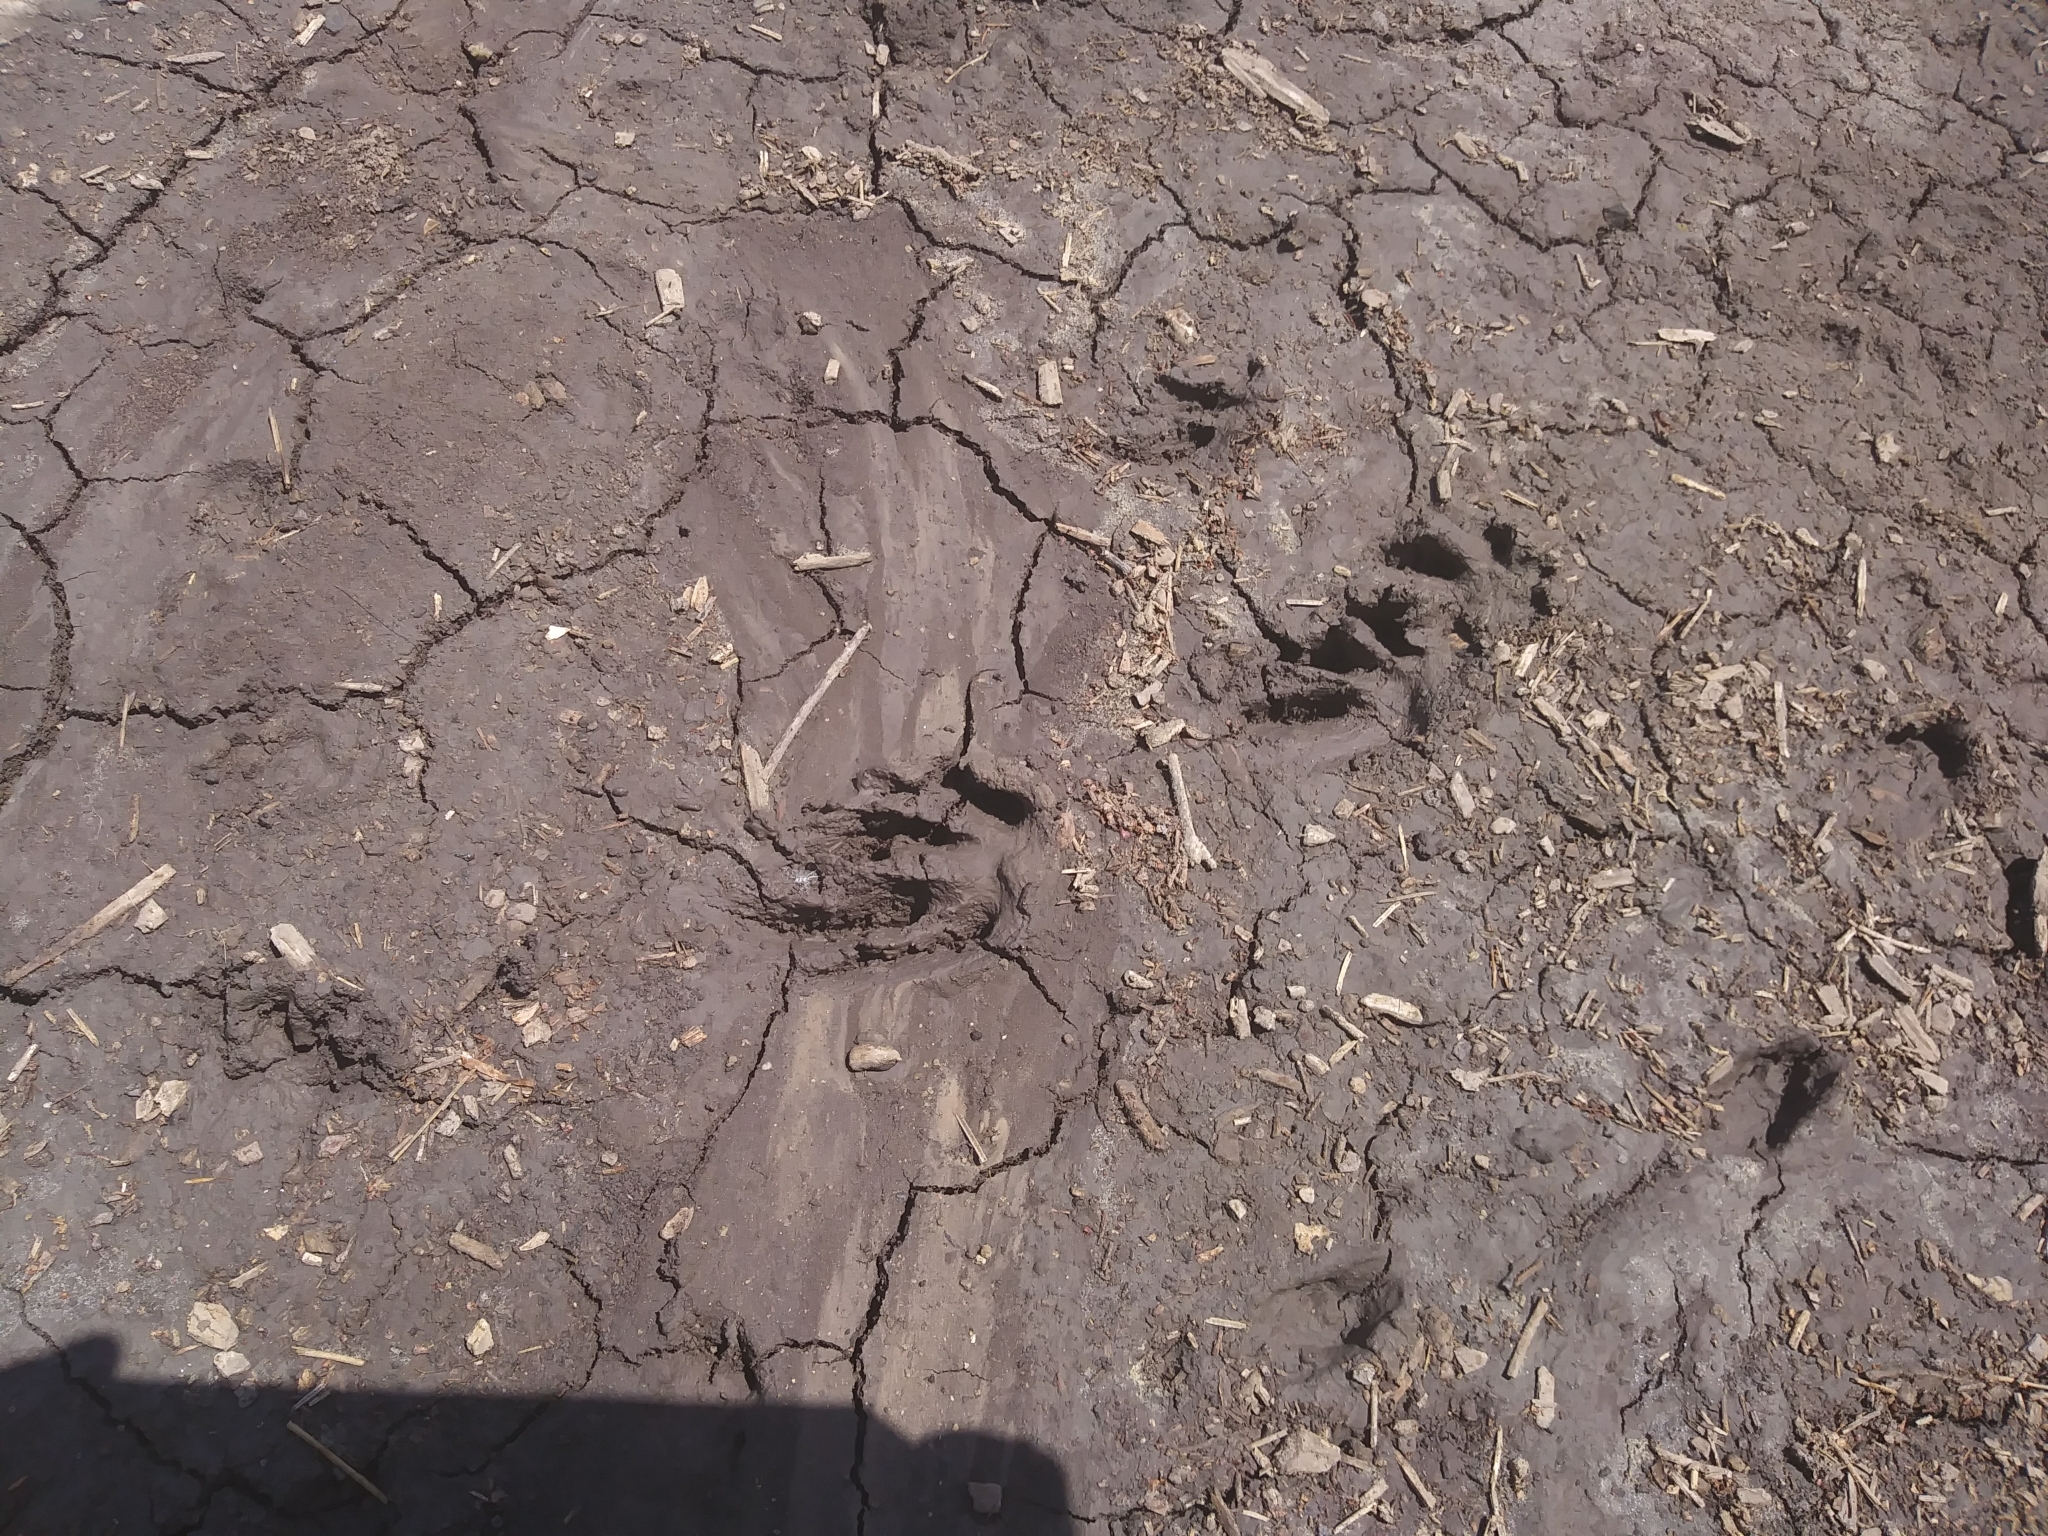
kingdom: Animalia
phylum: Chordata
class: Mammalia
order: Carnivora
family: Procyonidae
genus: Procyon
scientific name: Procyon lotor
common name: Raccoon
